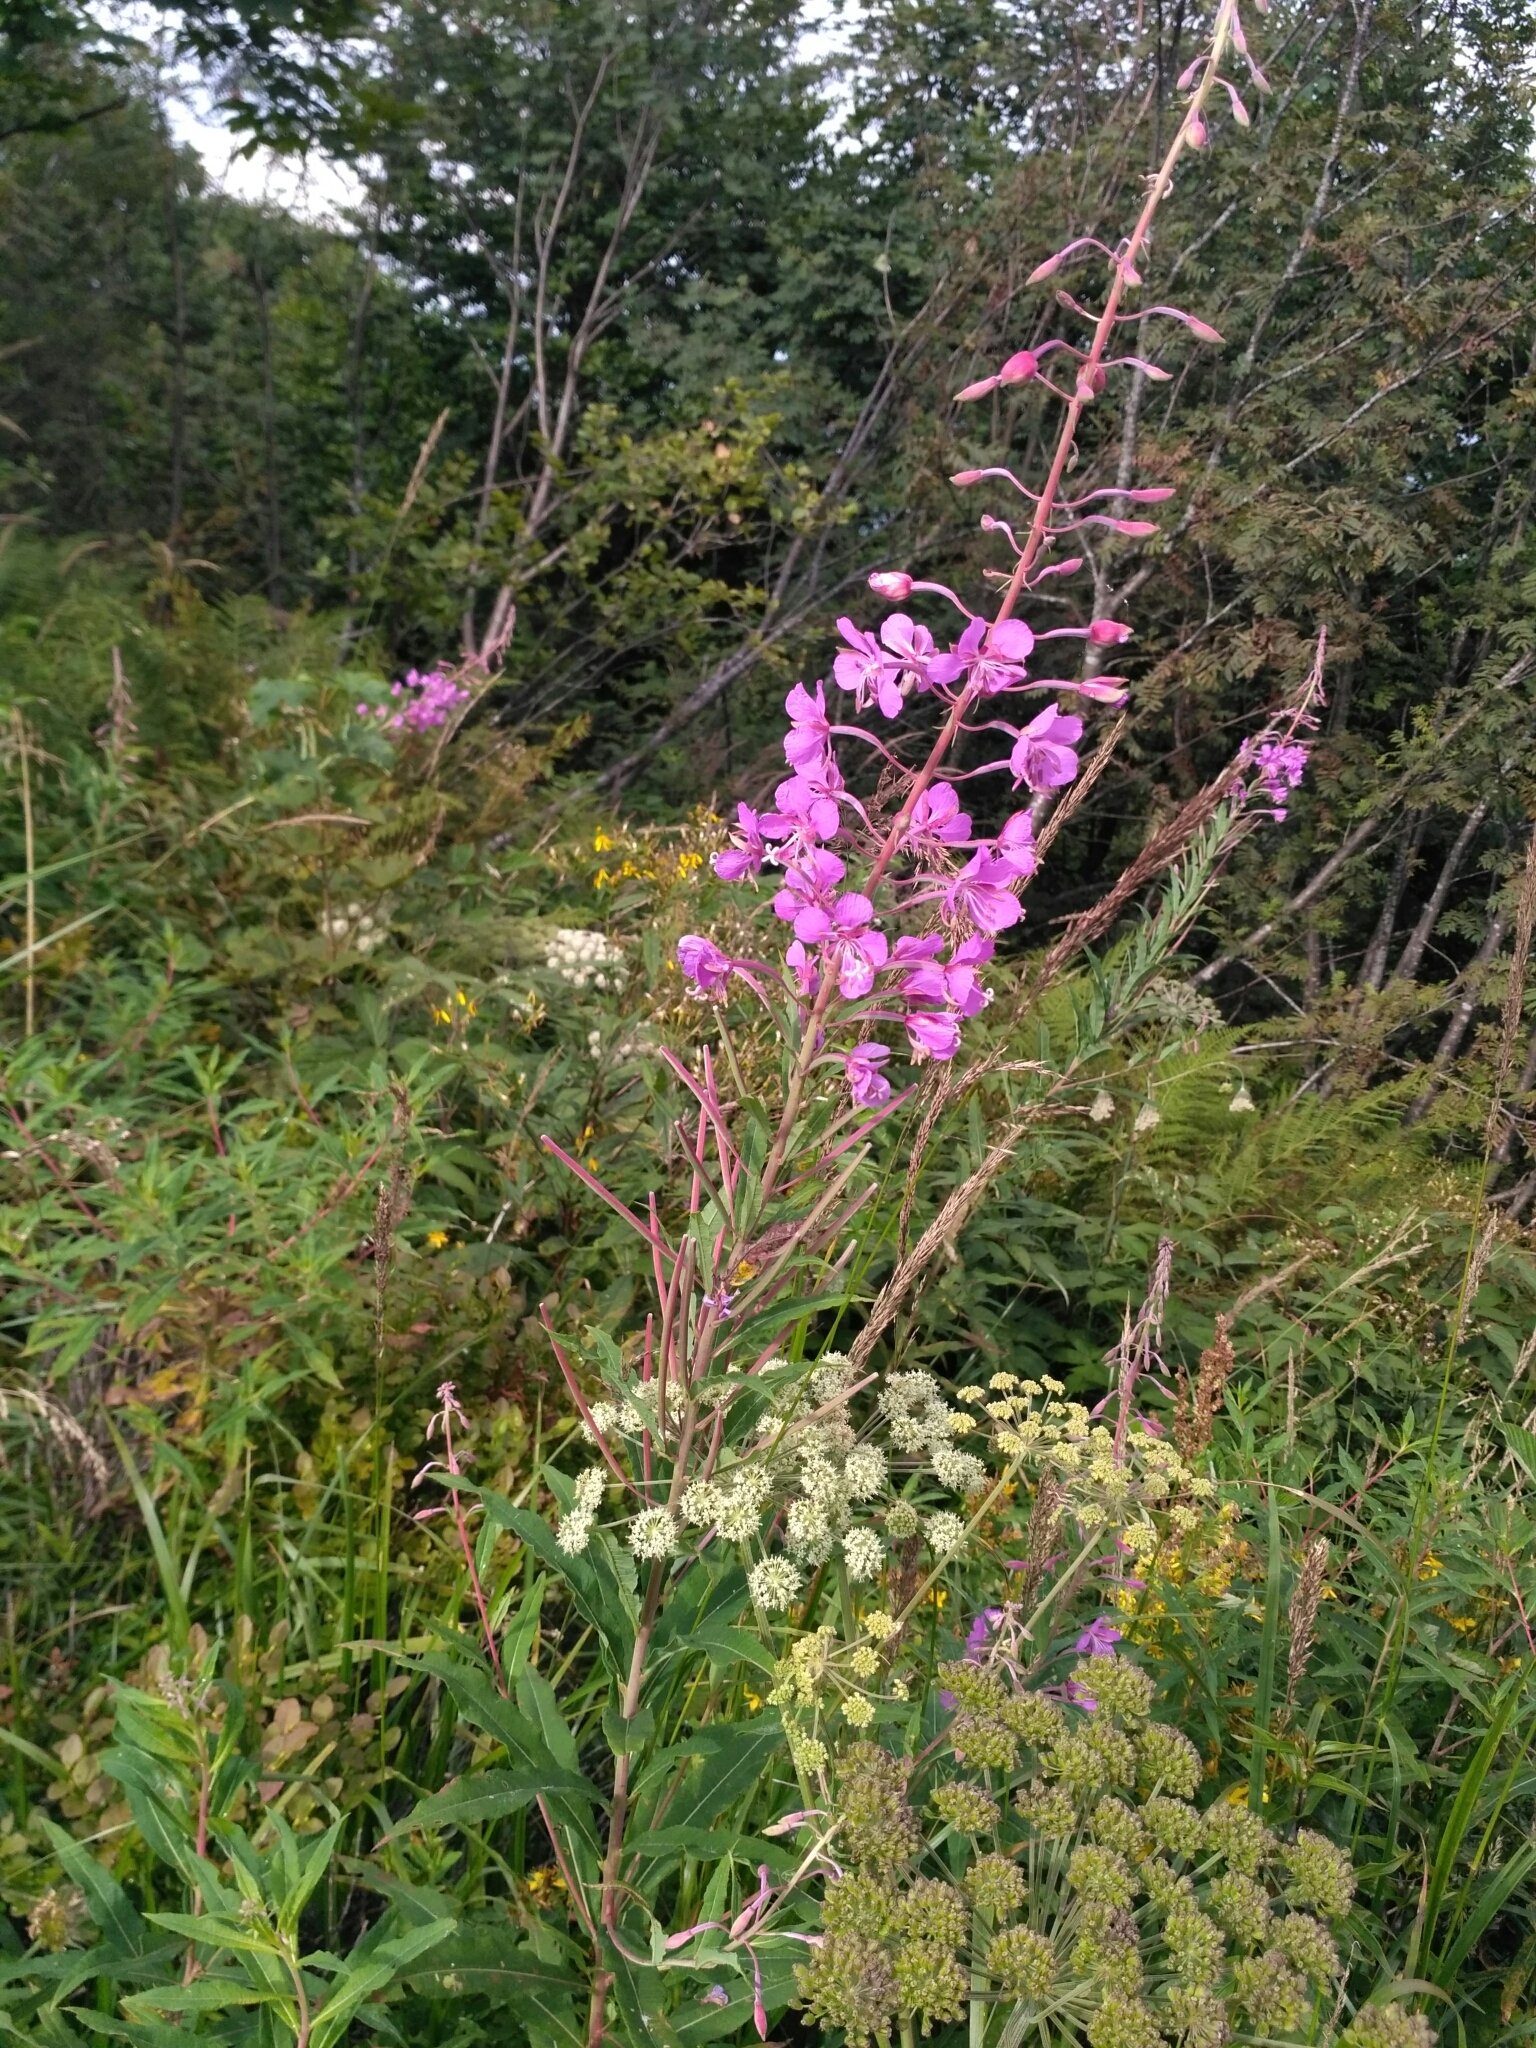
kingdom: Plantae
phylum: Tracheophyta
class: Magnoliopsida
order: Myrtales
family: Onagraceae
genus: Chamaenerion
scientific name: Chamaenerion angustifolium
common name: Fireweed
